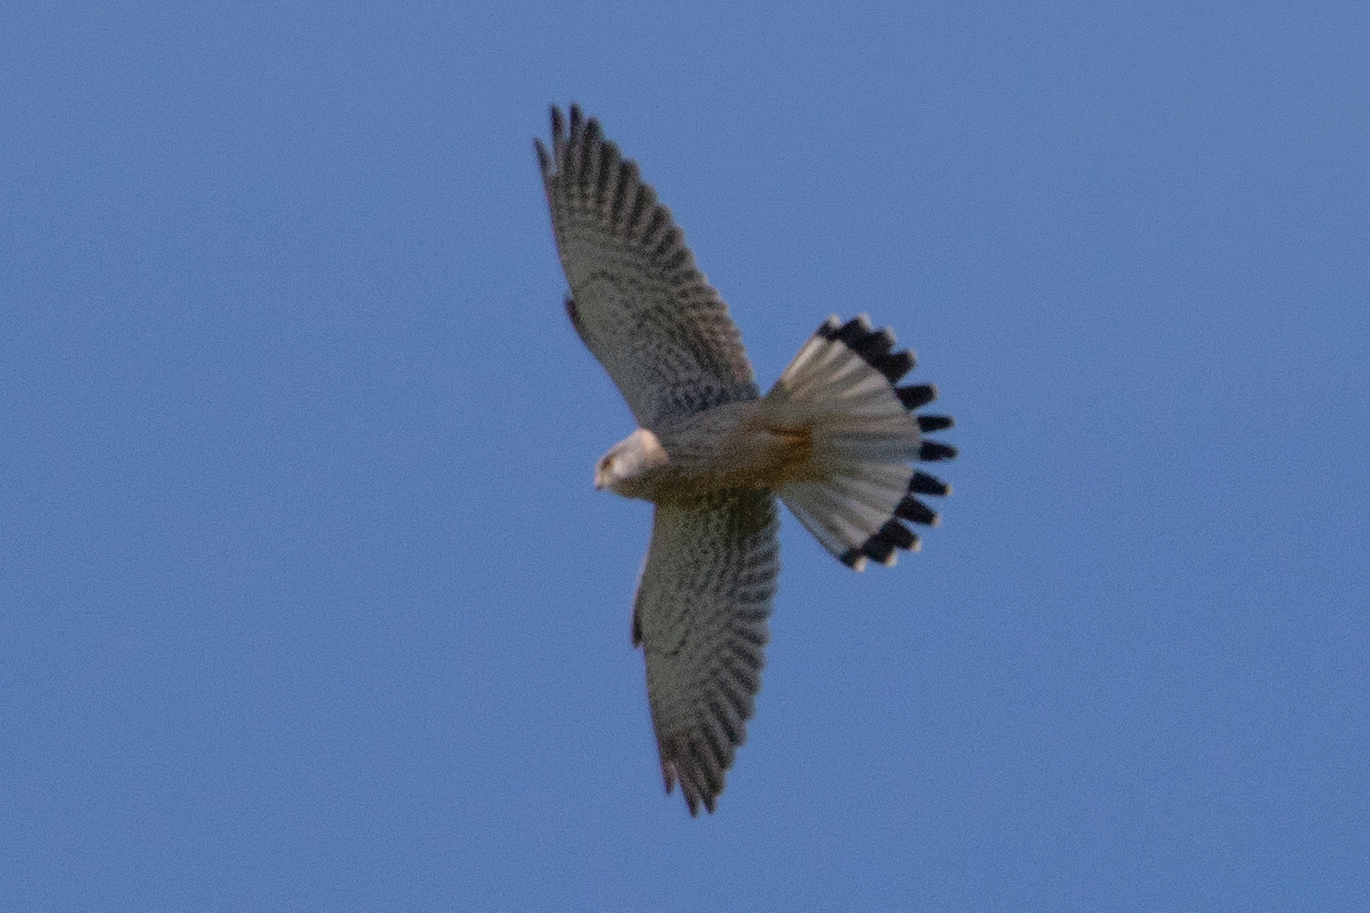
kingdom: Animalia
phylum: Chordata
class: Aves
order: Falconiformes
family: Falconidae
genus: Falco
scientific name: Falco tinnunculus
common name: Common kestrel
